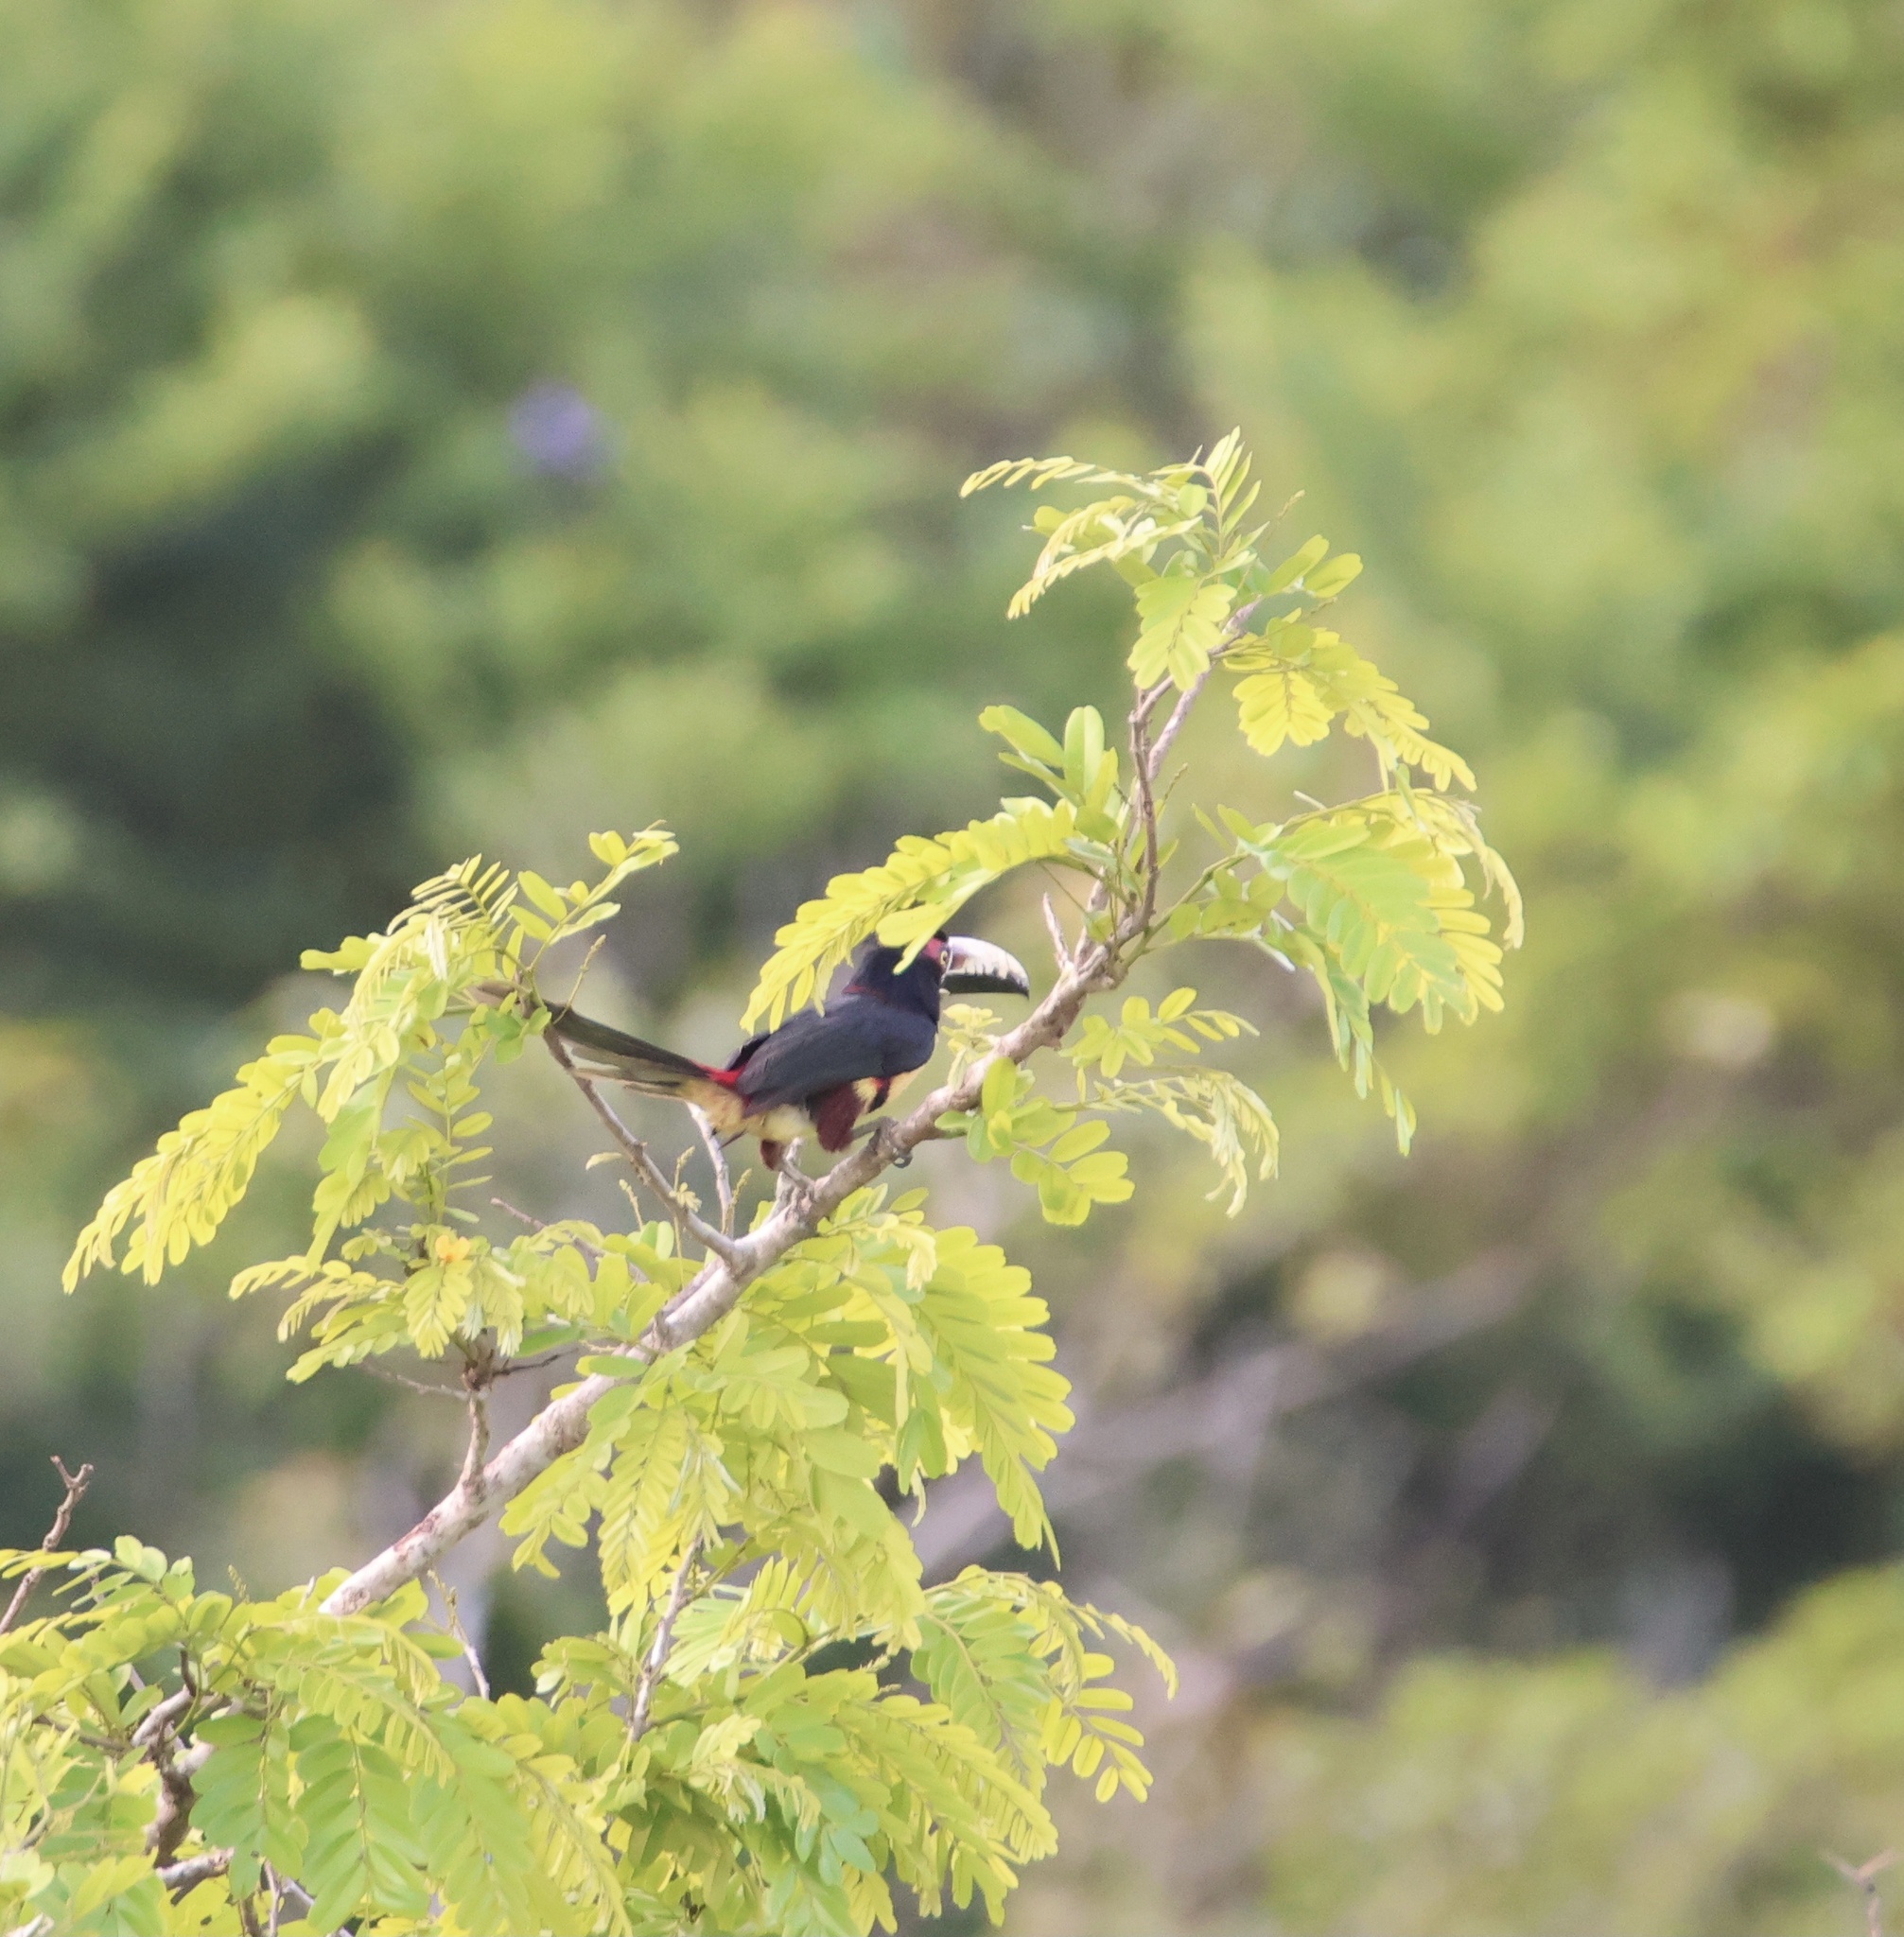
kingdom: Animalia
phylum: Chordata
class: Aves
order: Piciformes
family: Ramphastidae
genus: Pteroglossus
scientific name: Pteroglossus torquatus
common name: Collared aracari
